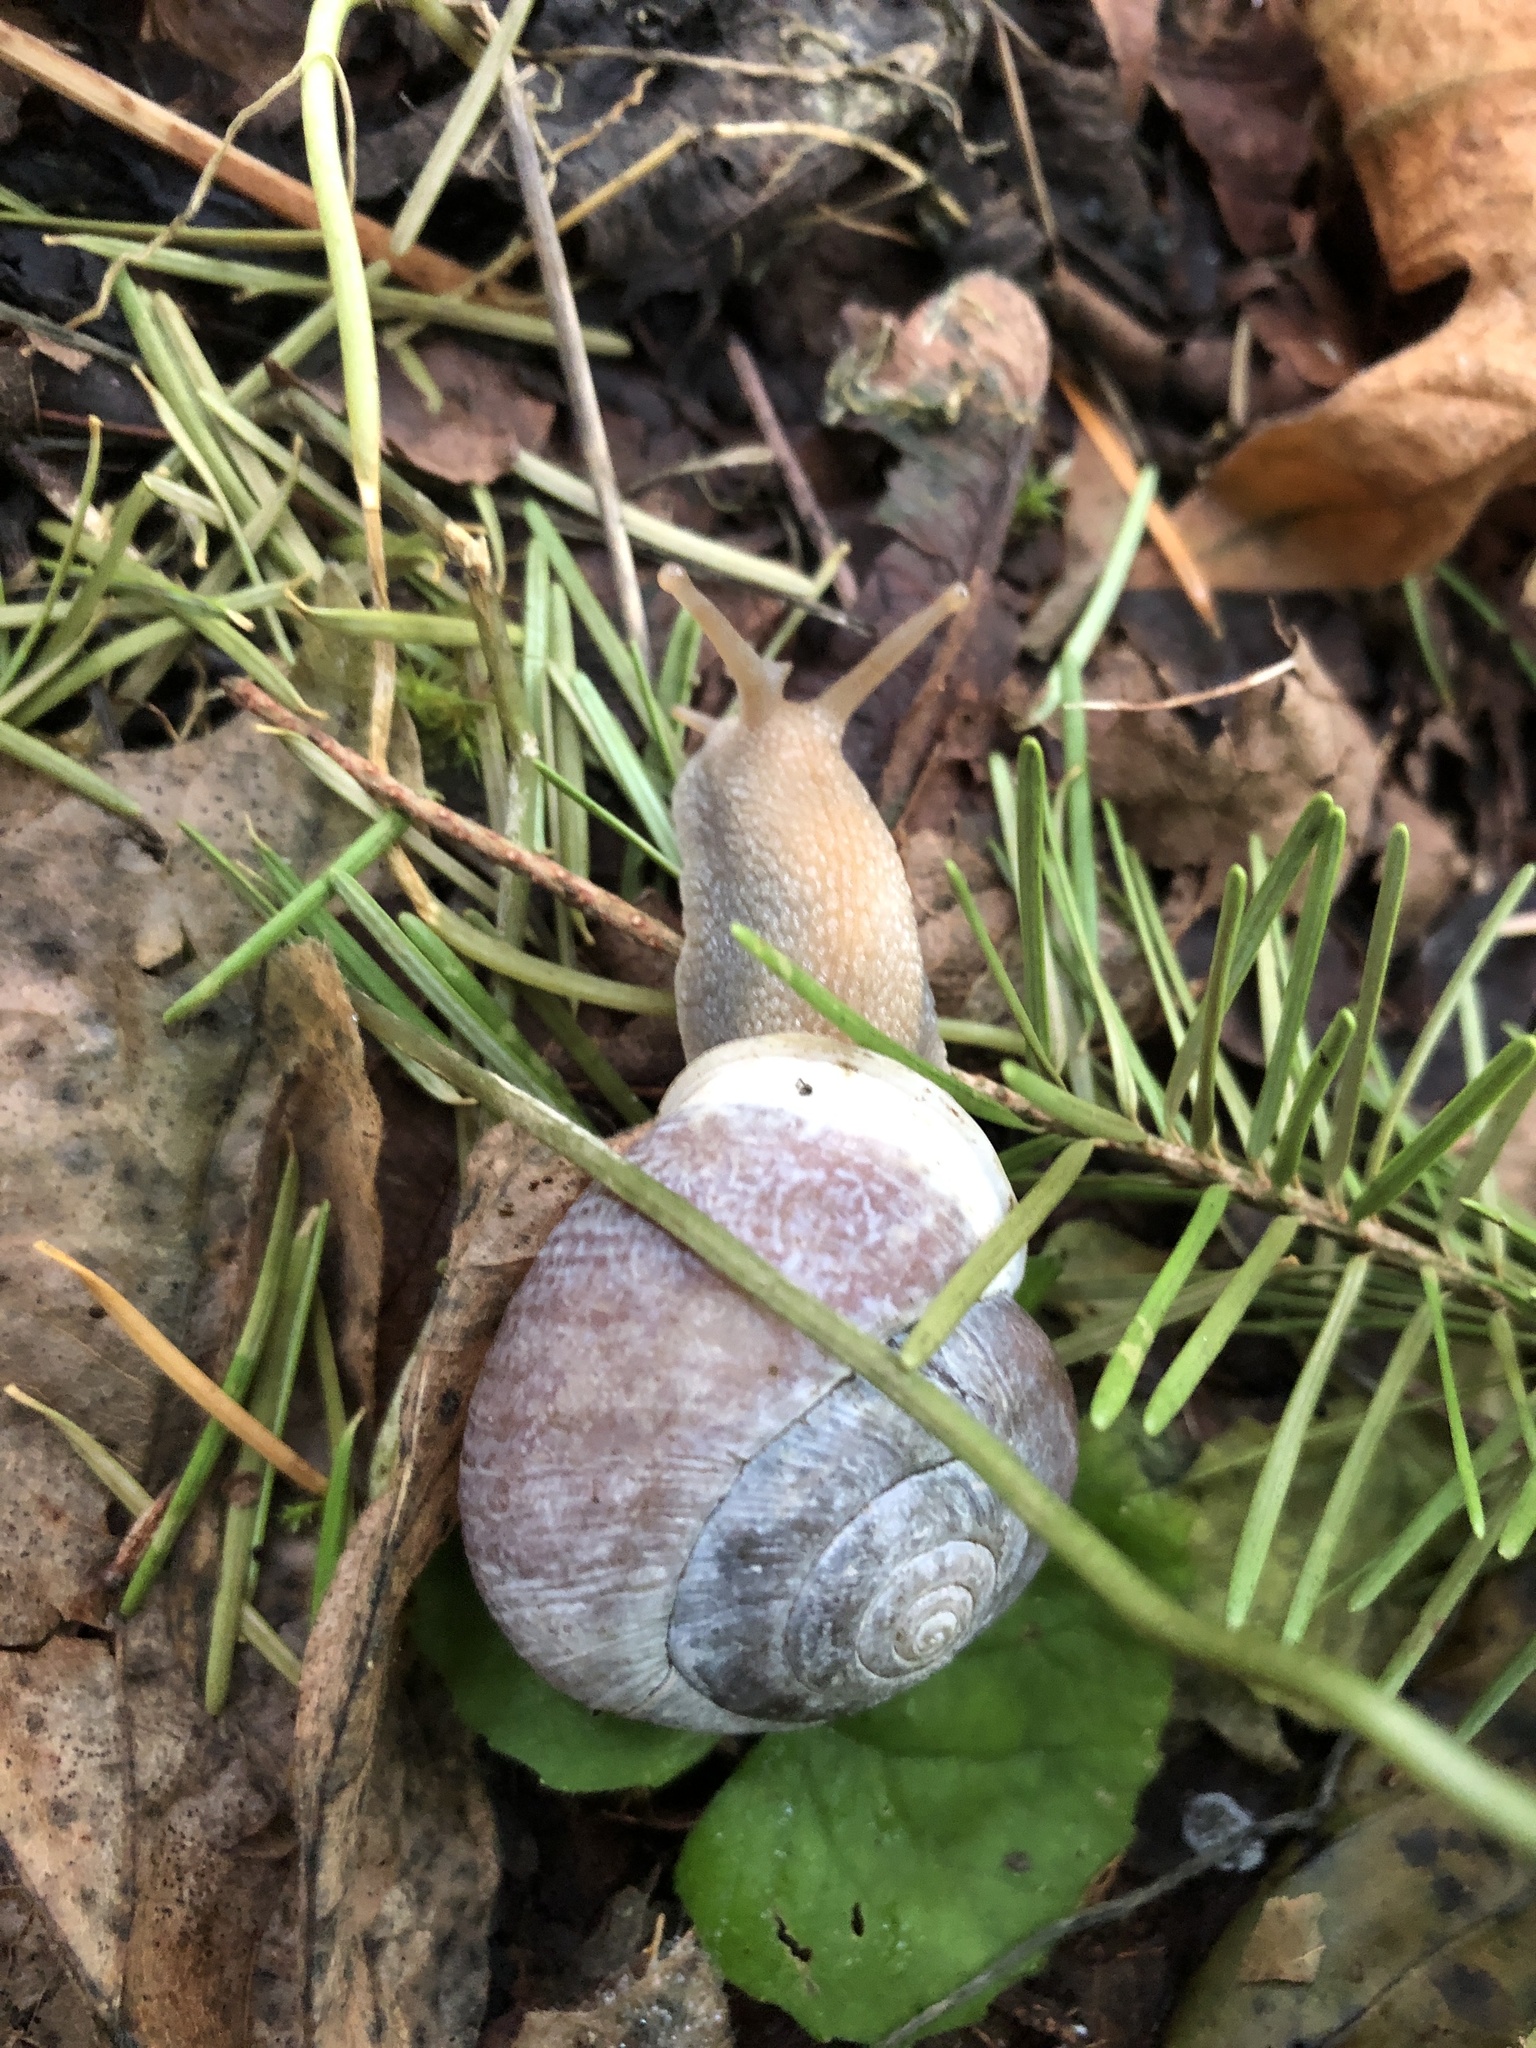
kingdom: Animalia
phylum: Mollusca
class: Gastropoda
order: Stylommatophora
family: Polygyridae
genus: Allogona
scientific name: Allogona townsendiana
